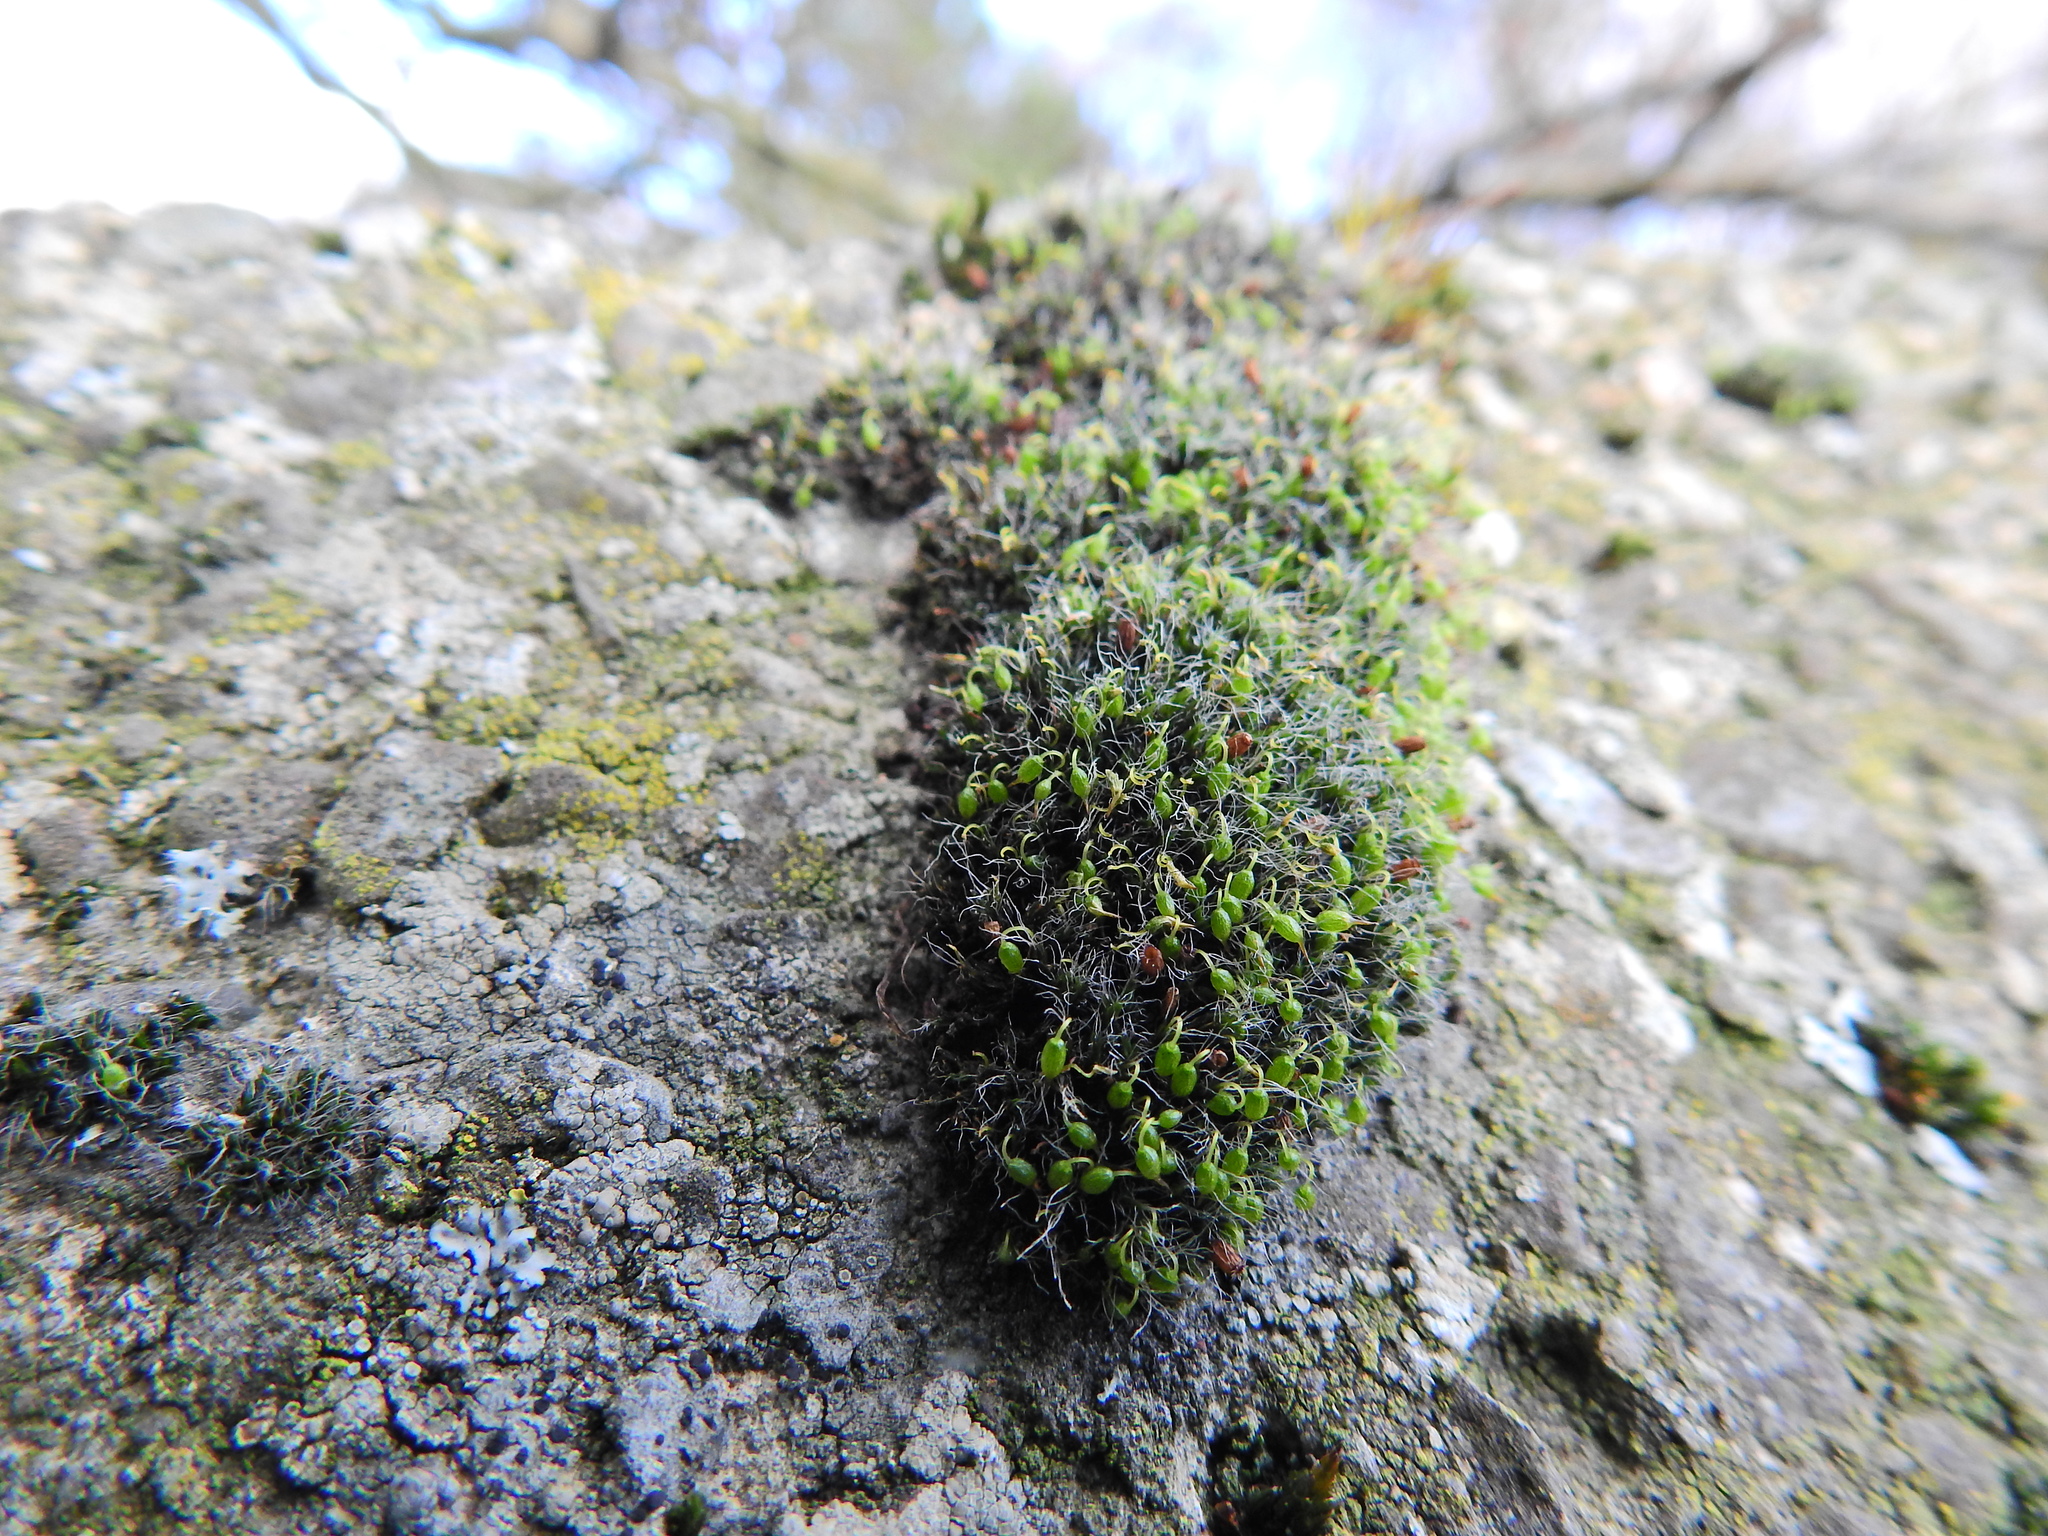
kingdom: Plantae
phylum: Bryophyta
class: Bryopsida
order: Grimmiales
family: Grimmiaceae
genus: Grimmia
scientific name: Grimmia pulvinata
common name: Grey-cushioned grimmia
